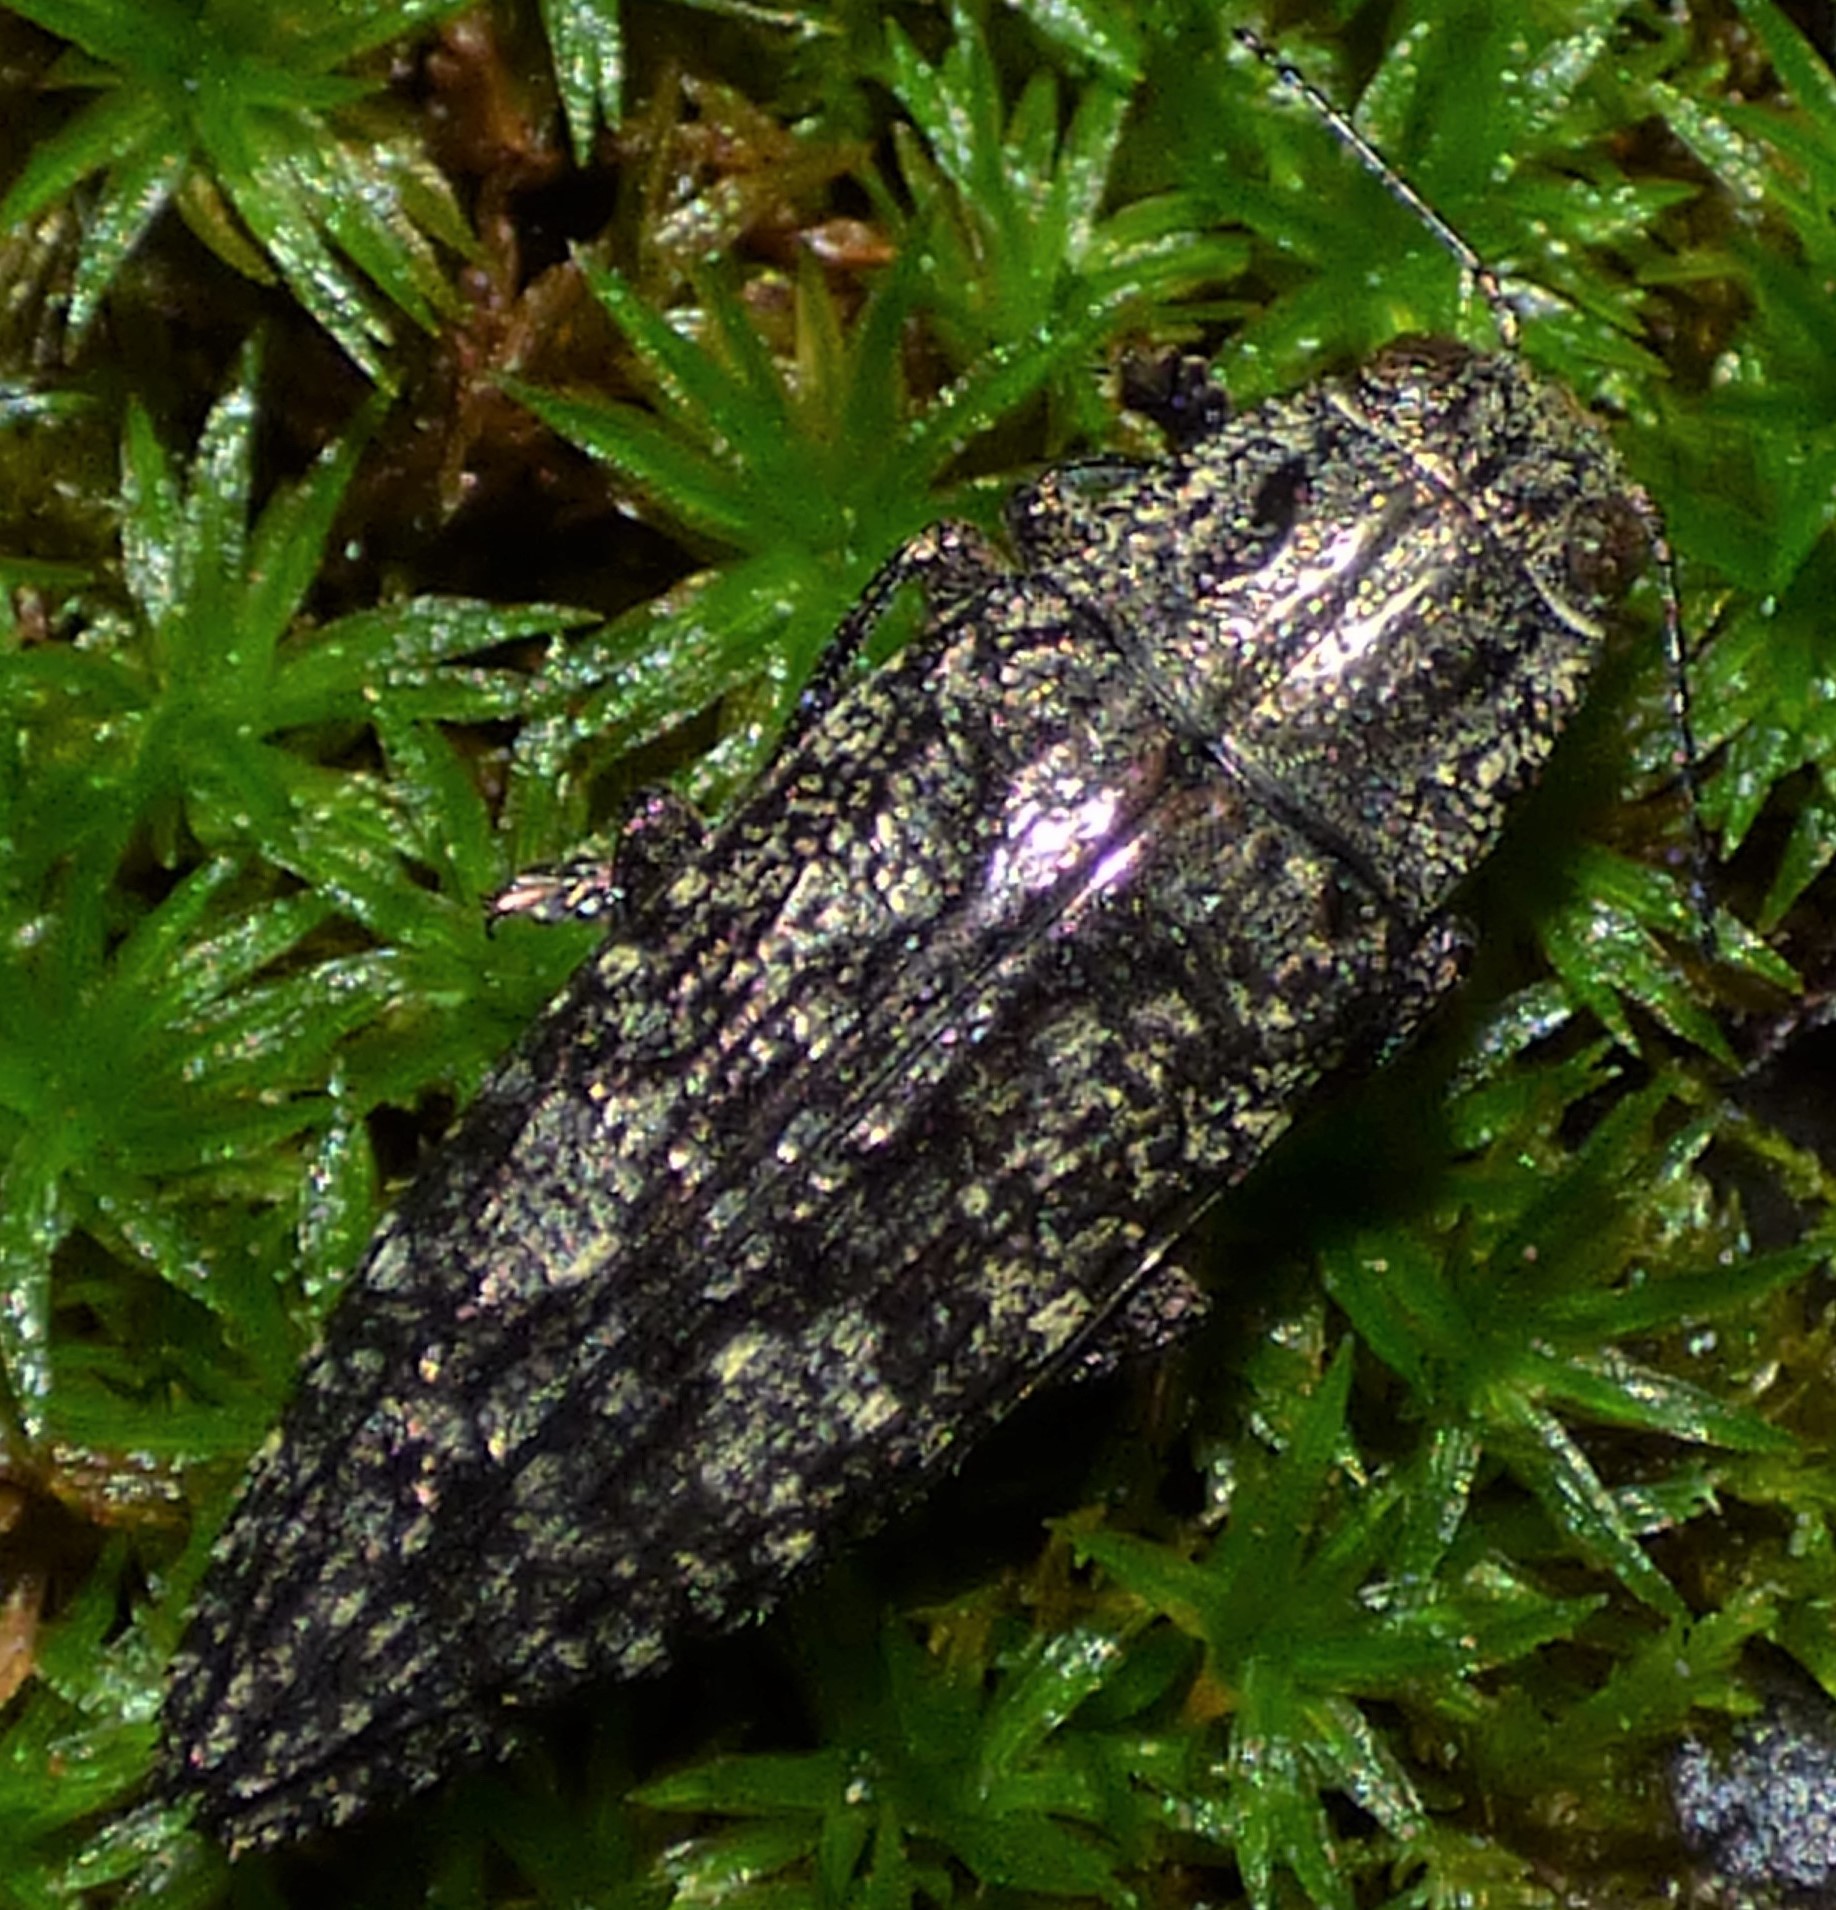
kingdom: Animalia
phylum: Arthropoda
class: Insecta
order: Coleoptera
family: Buprestidae
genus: Texania
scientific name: Texania campestris
